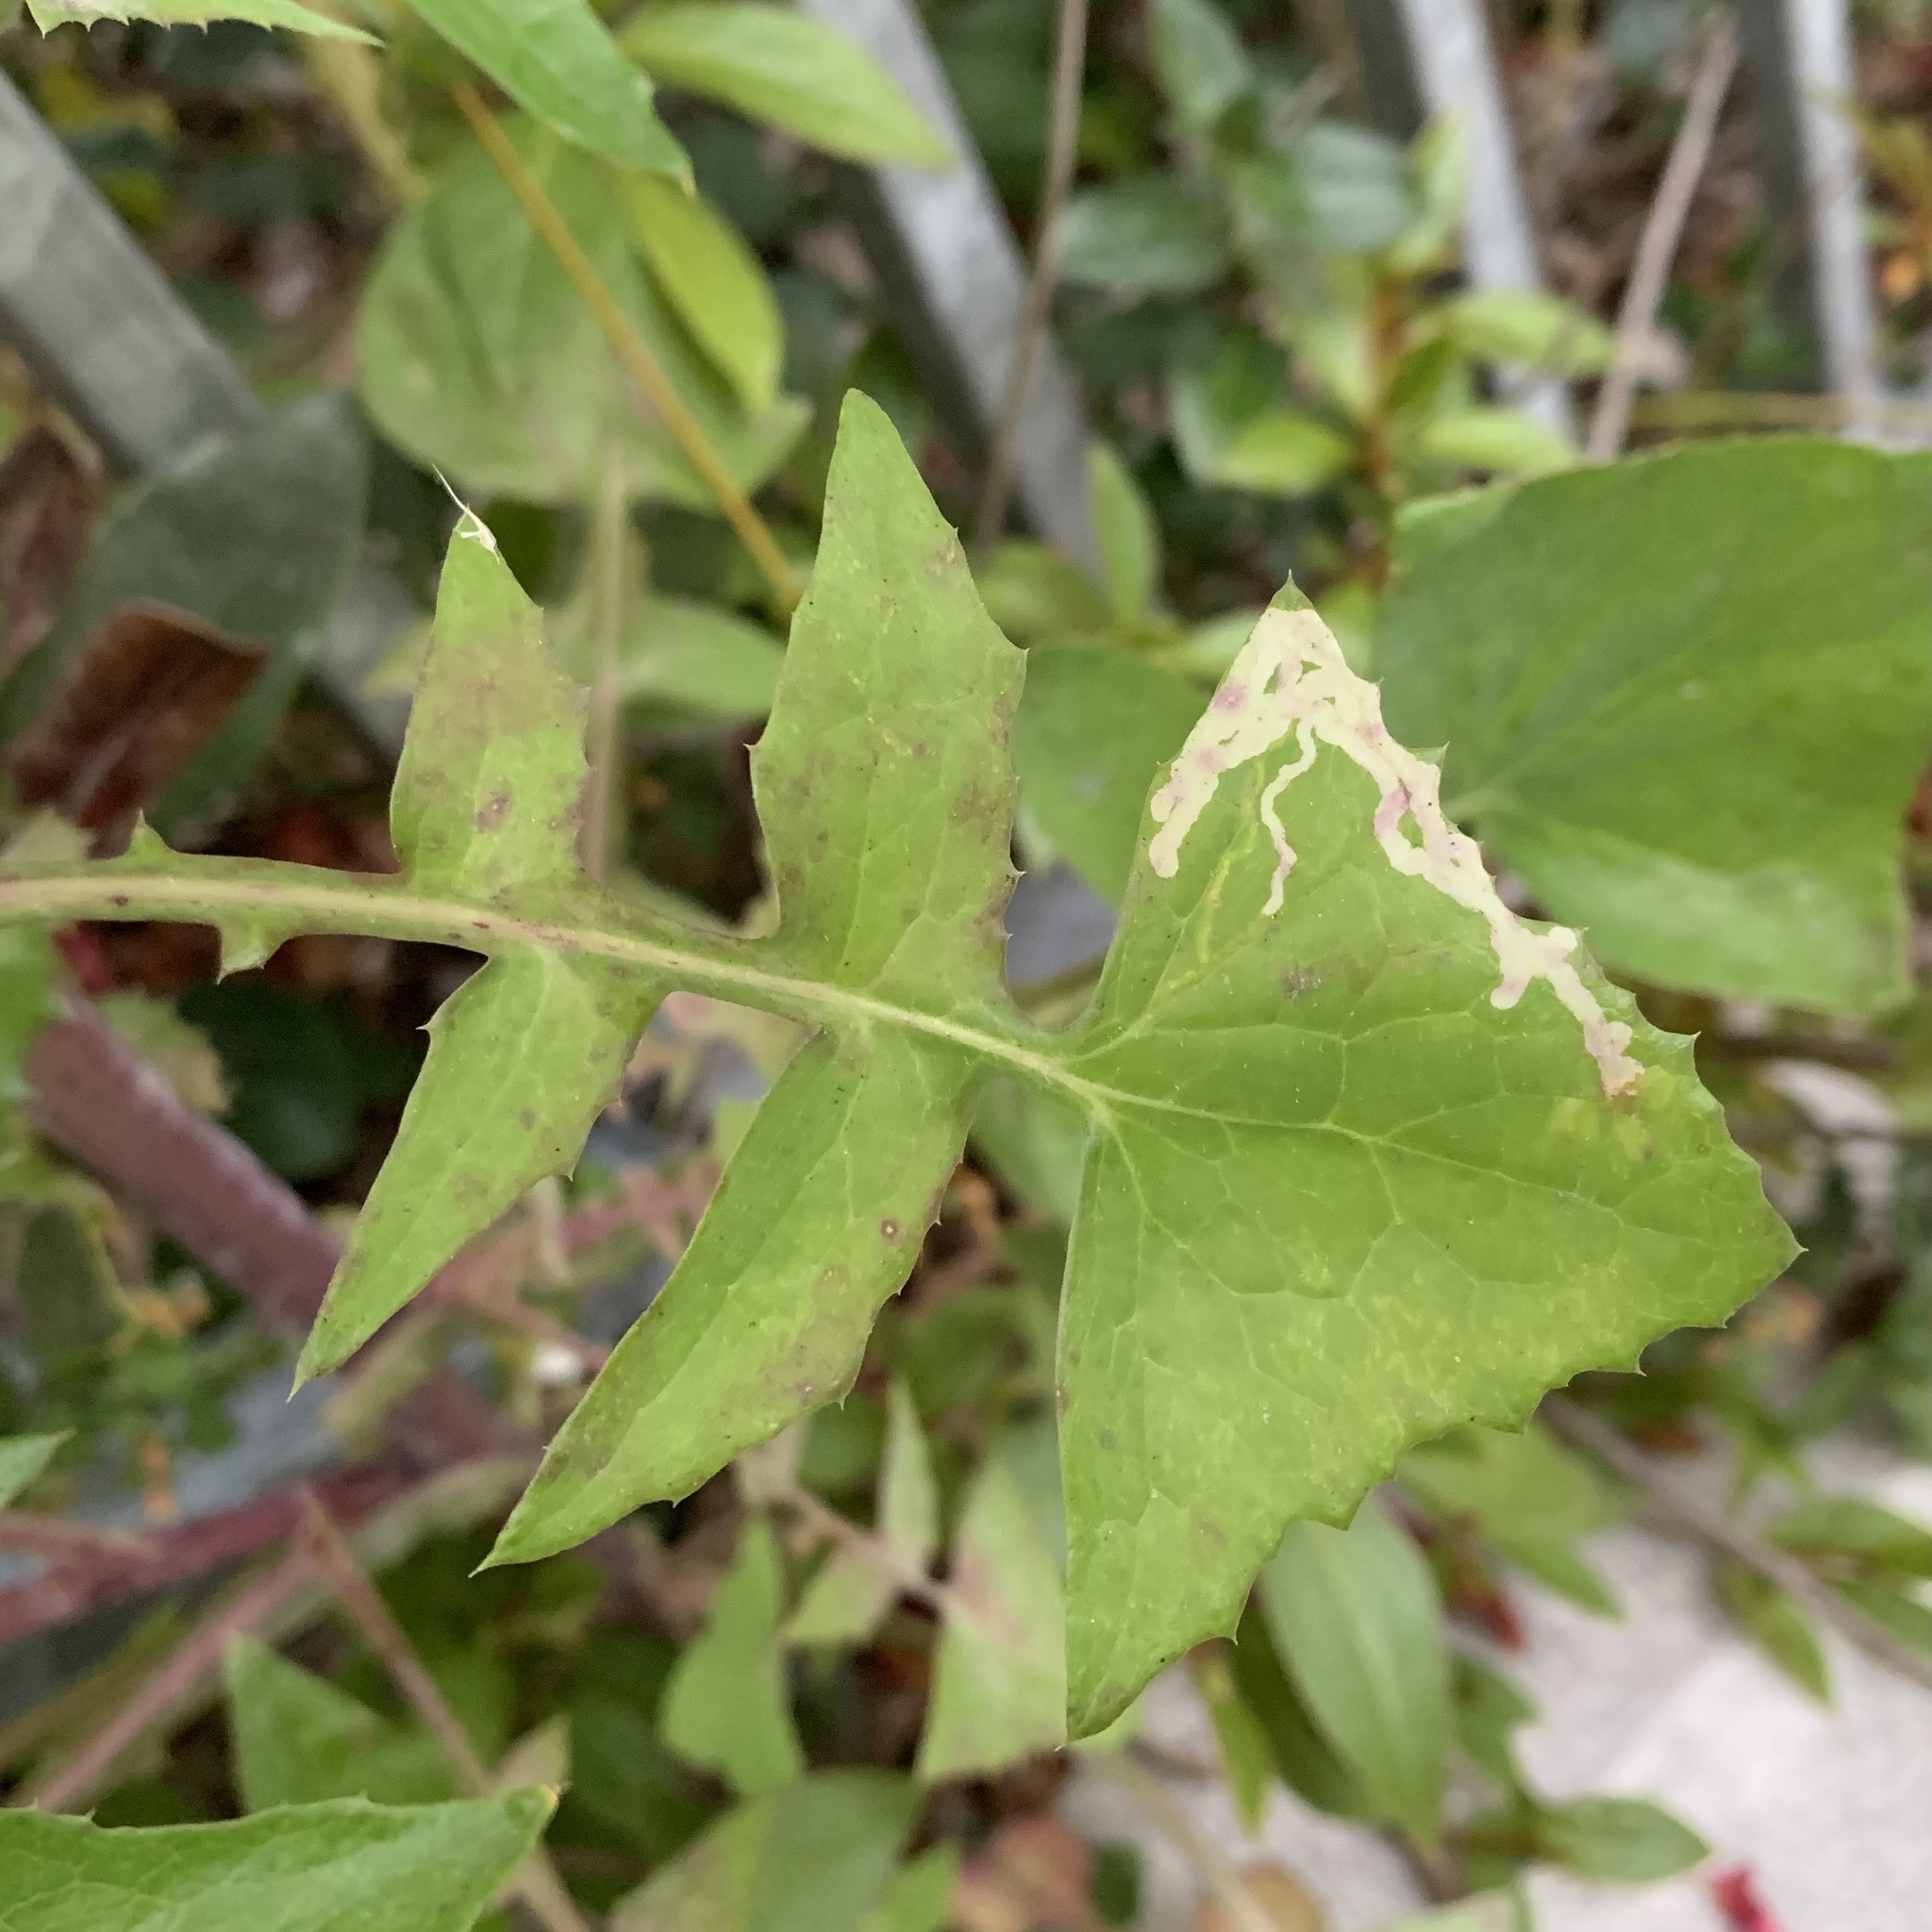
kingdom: Animalia
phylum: Arthropoda
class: Insecta
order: Diptera
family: Agromyzidae
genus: Phytomyza
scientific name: Phytomyza syngenesiae
